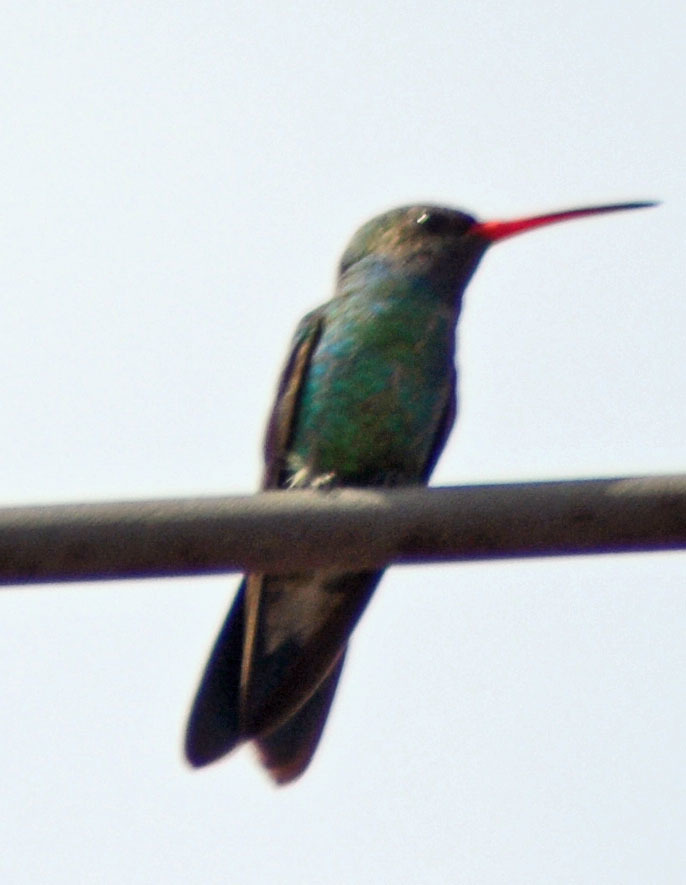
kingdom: Animalia
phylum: Chordata
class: Aves
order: Apodiformes
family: Trochilidae
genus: Cynanthus
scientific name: Cynanthus latirostris
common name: Broad-billed hummingbird
